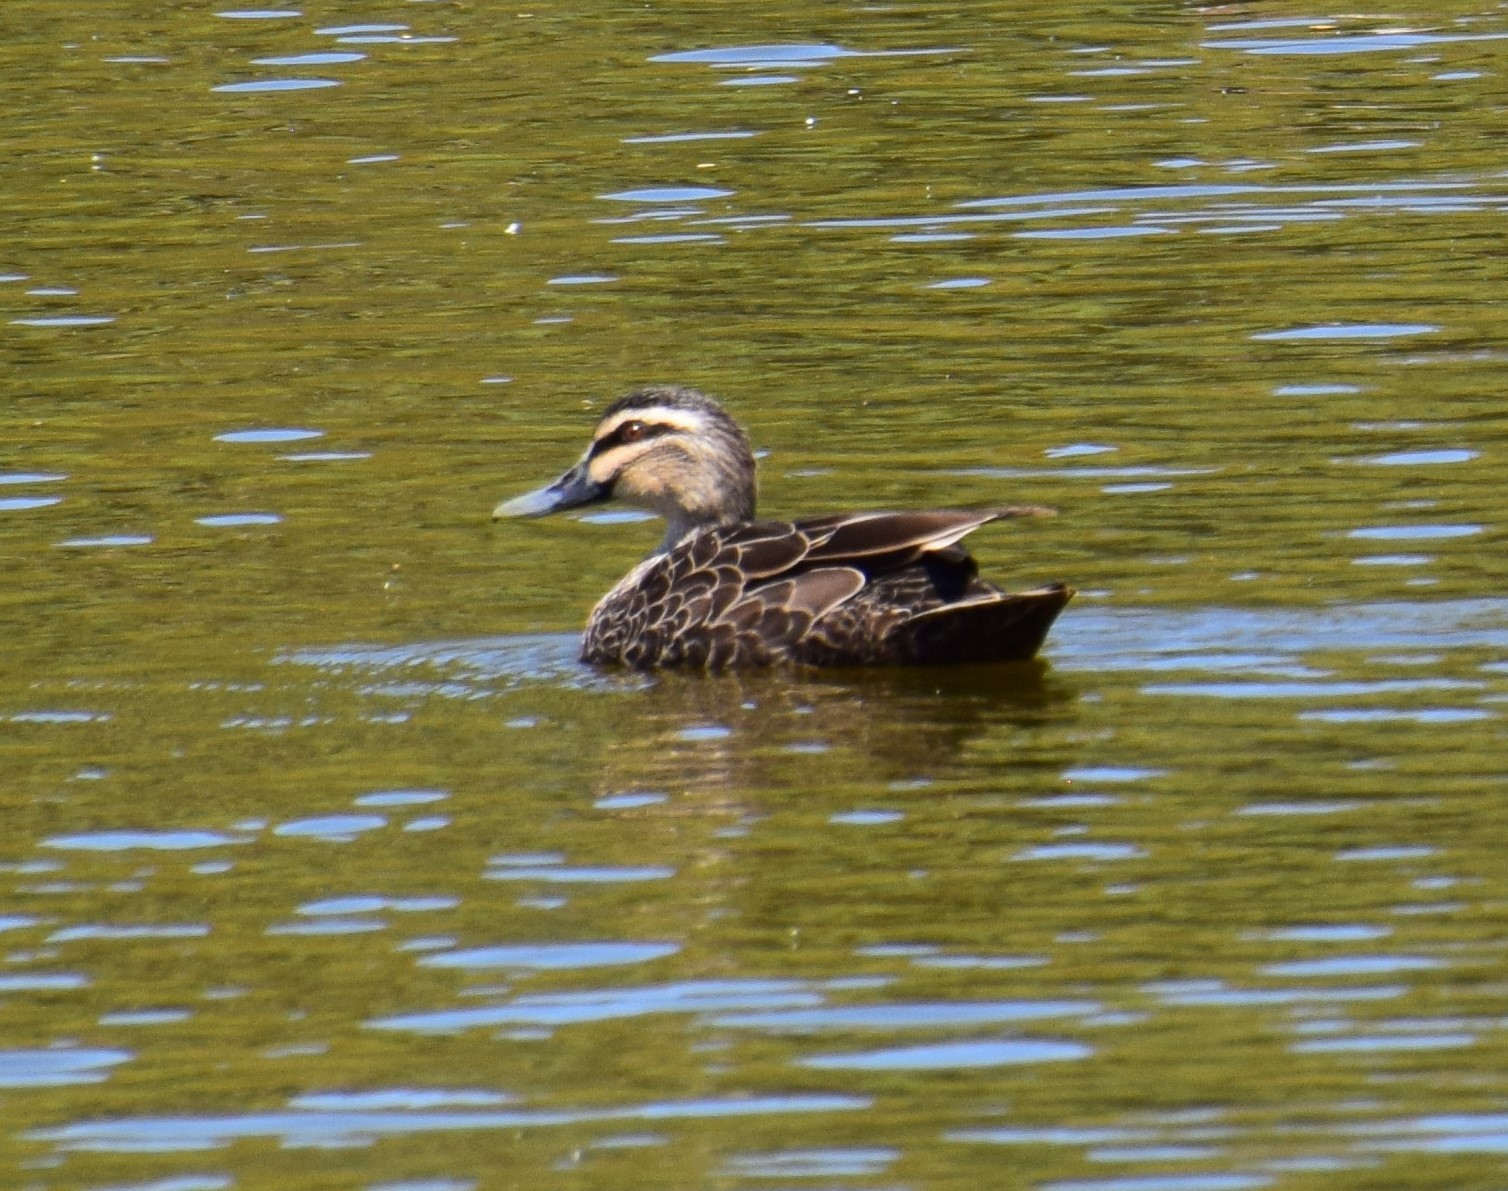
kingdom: Animalia
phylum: Chordata
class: Aves
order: Anseriformes
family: Anatidae
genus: Anas
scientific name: Anas superciliosa
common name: Pacific black duck
